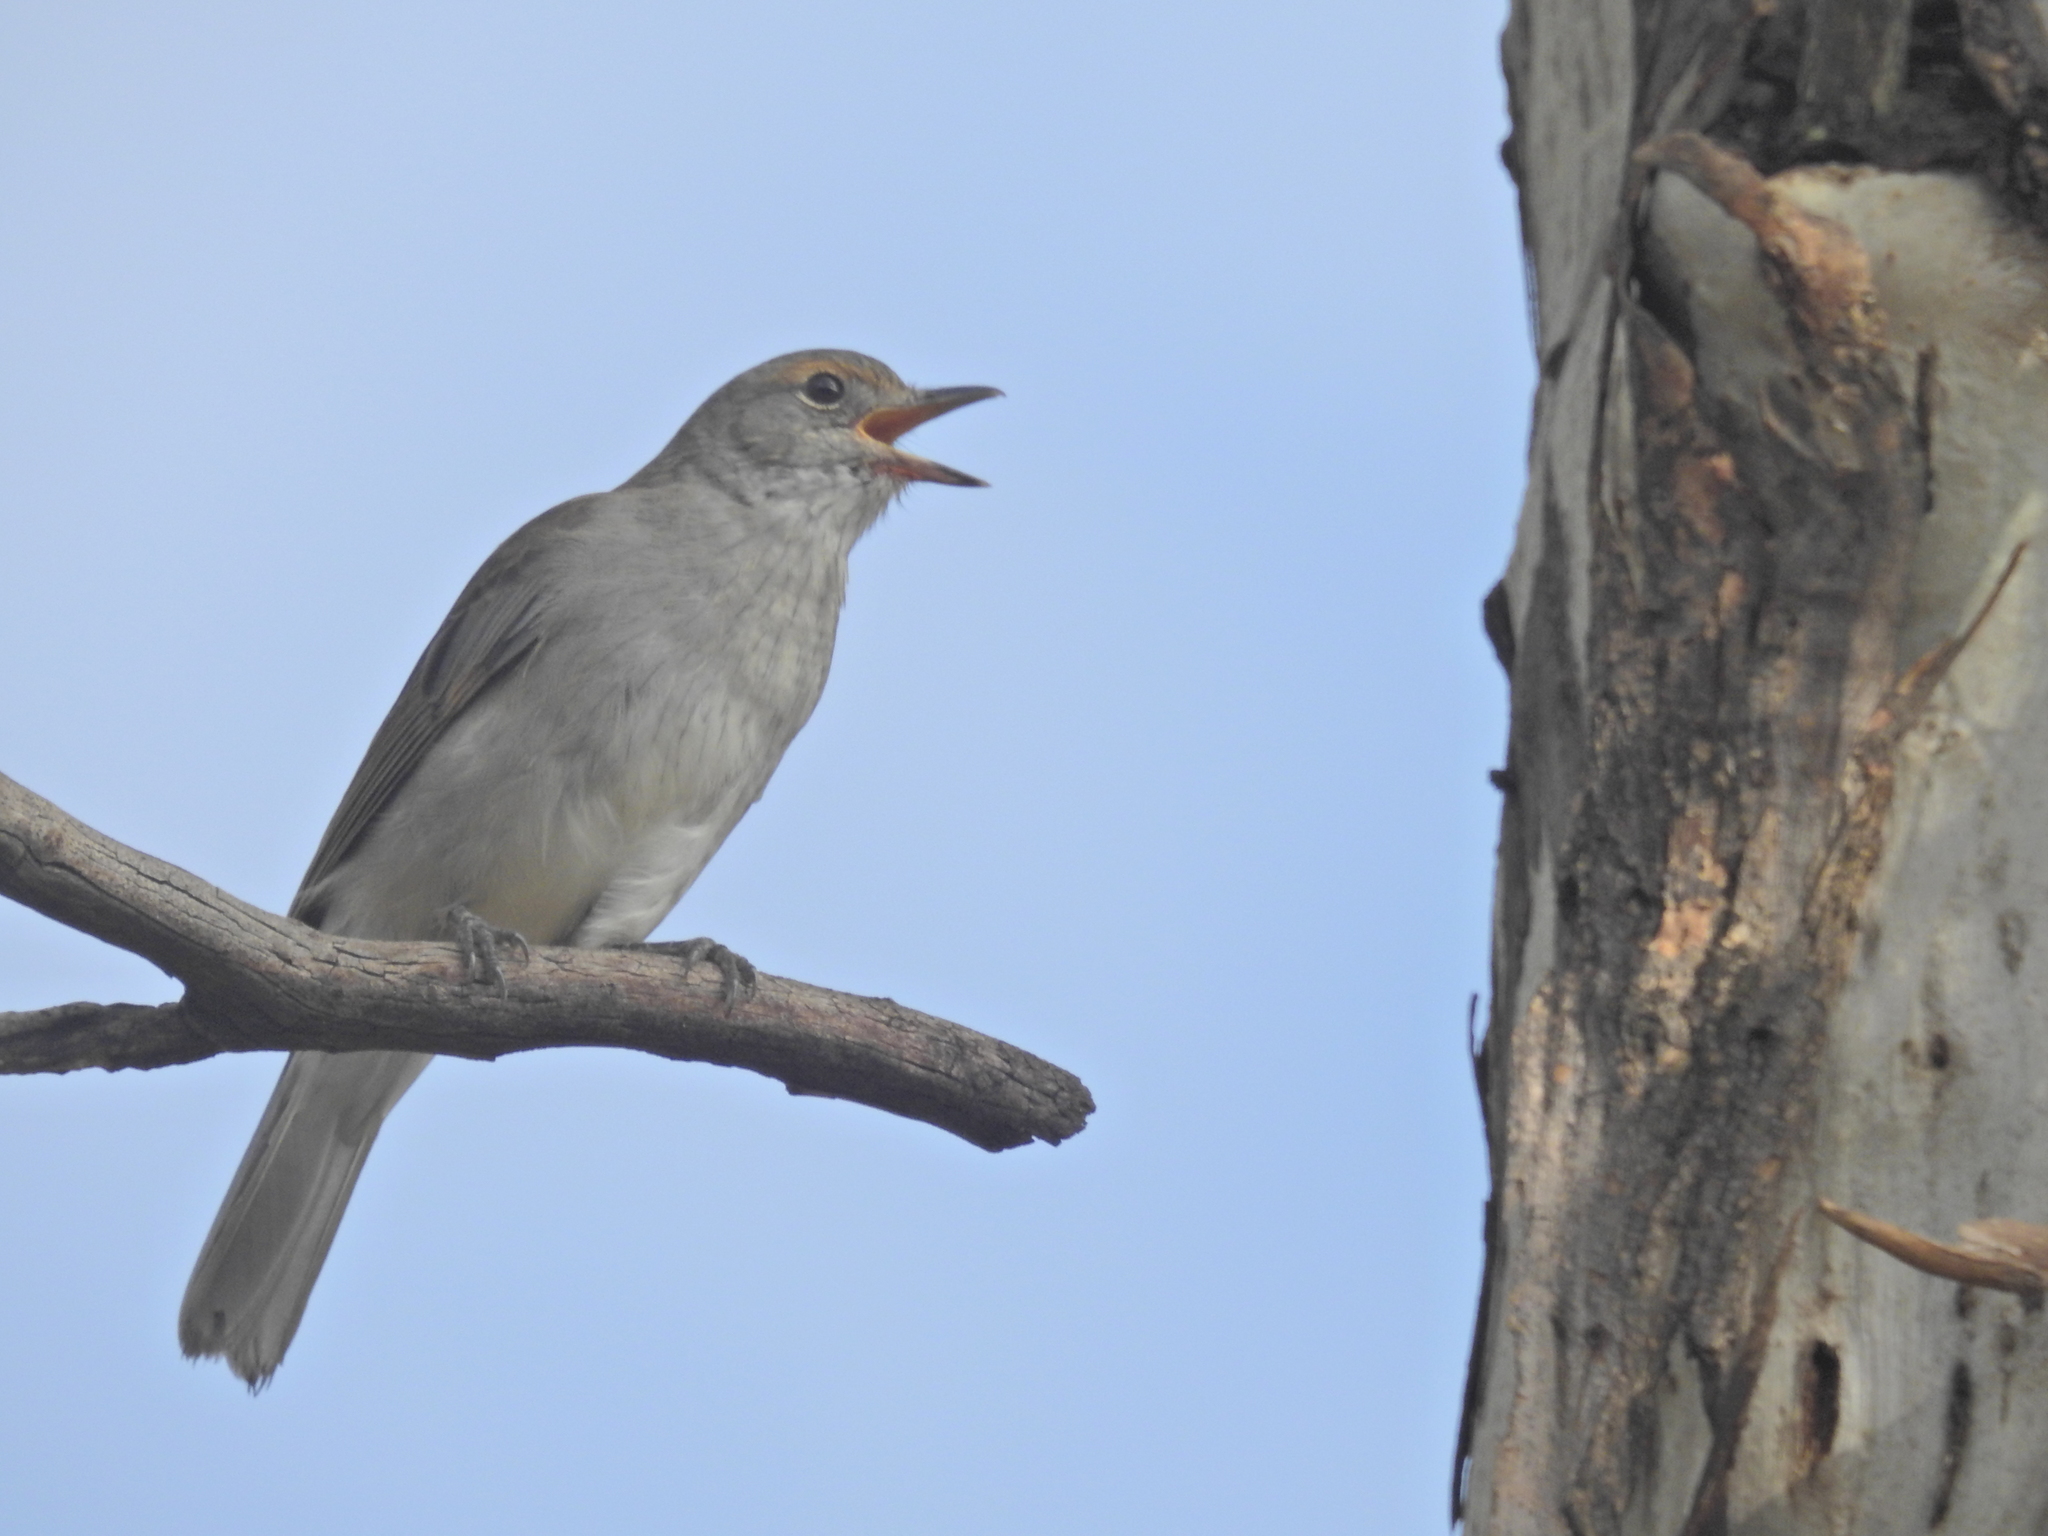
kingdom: Animalia
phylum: Chordata
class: Aves
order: Passeriformes
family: Pachycephalidae
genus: Colluricincla
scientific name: Colluricincla harmonica
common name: Grey shrikethrush
